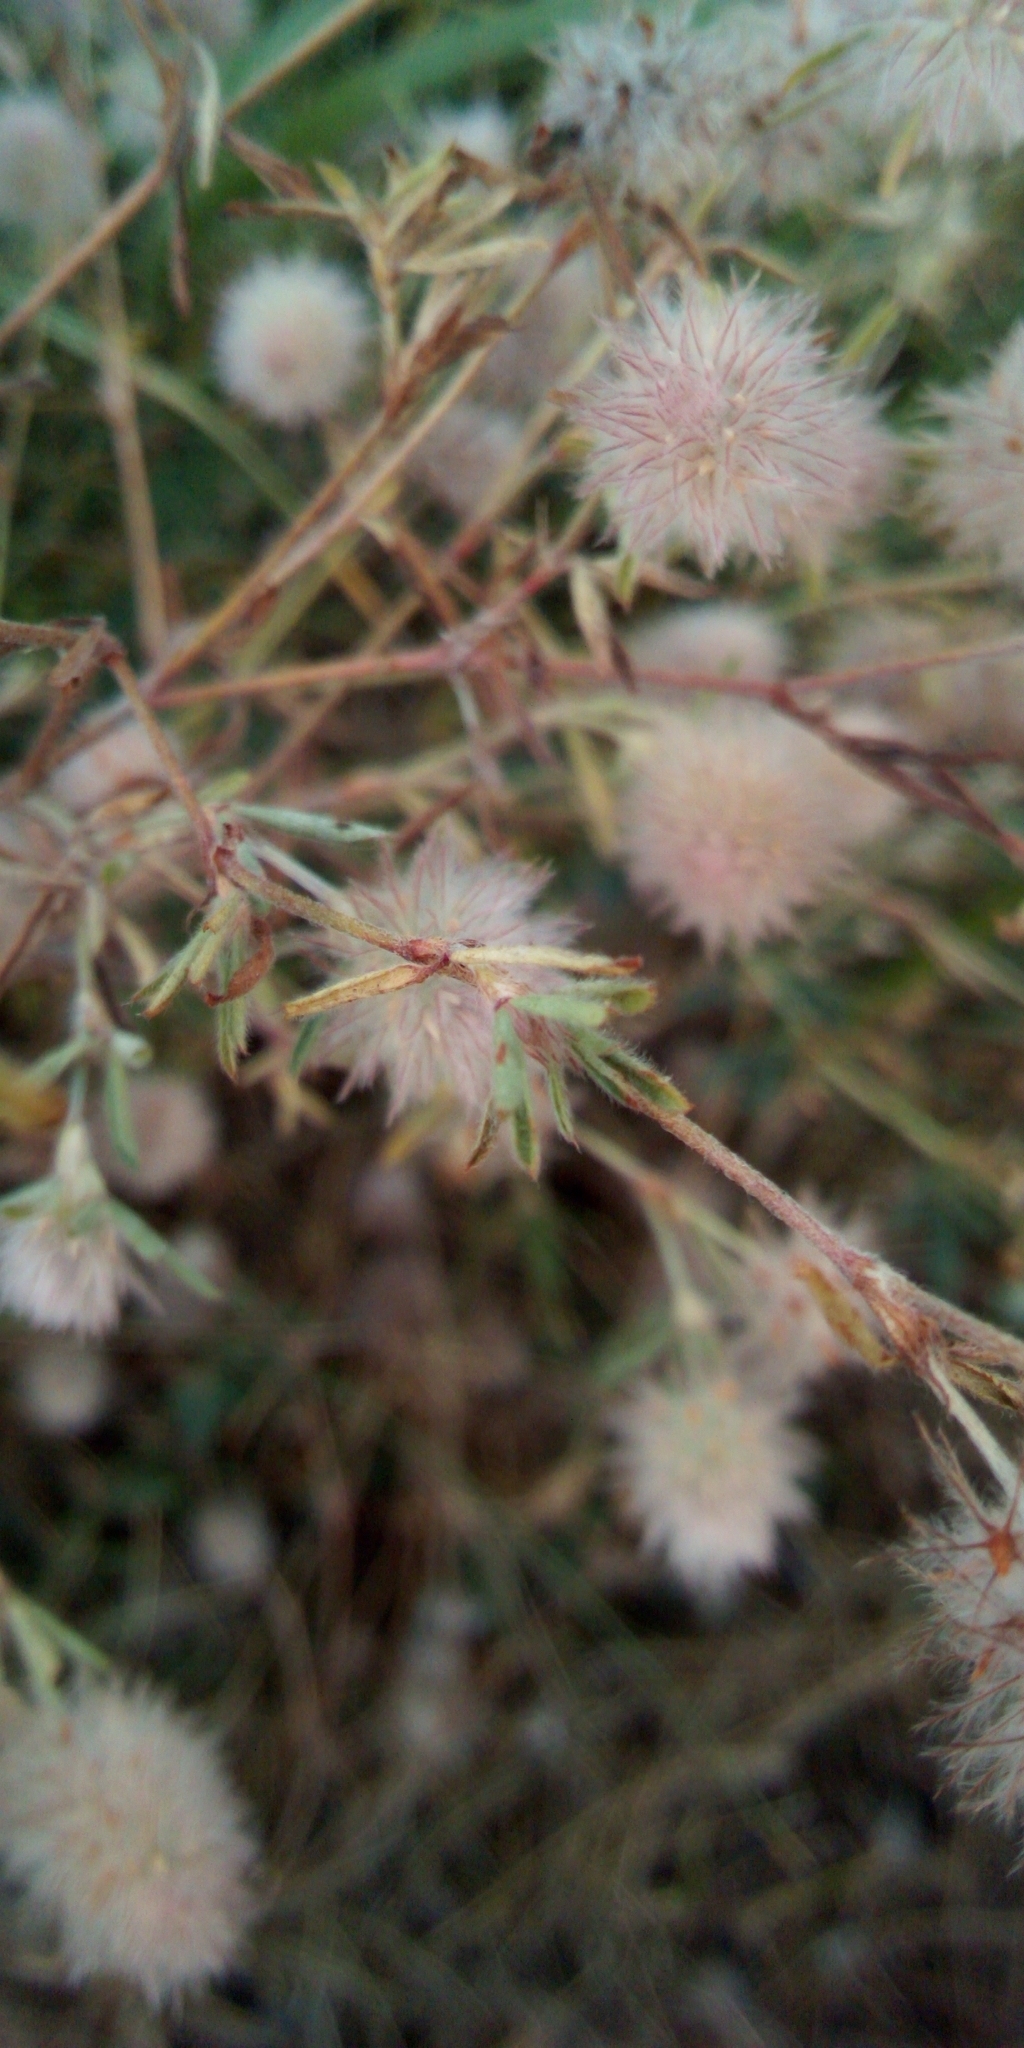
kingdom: Plantae
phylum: Tracheophyta
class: Magnoliopsida
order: Fabales
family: Fabaceae
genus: Trifolium
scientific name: Trifolium arvense
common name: Hare's-foot clover
